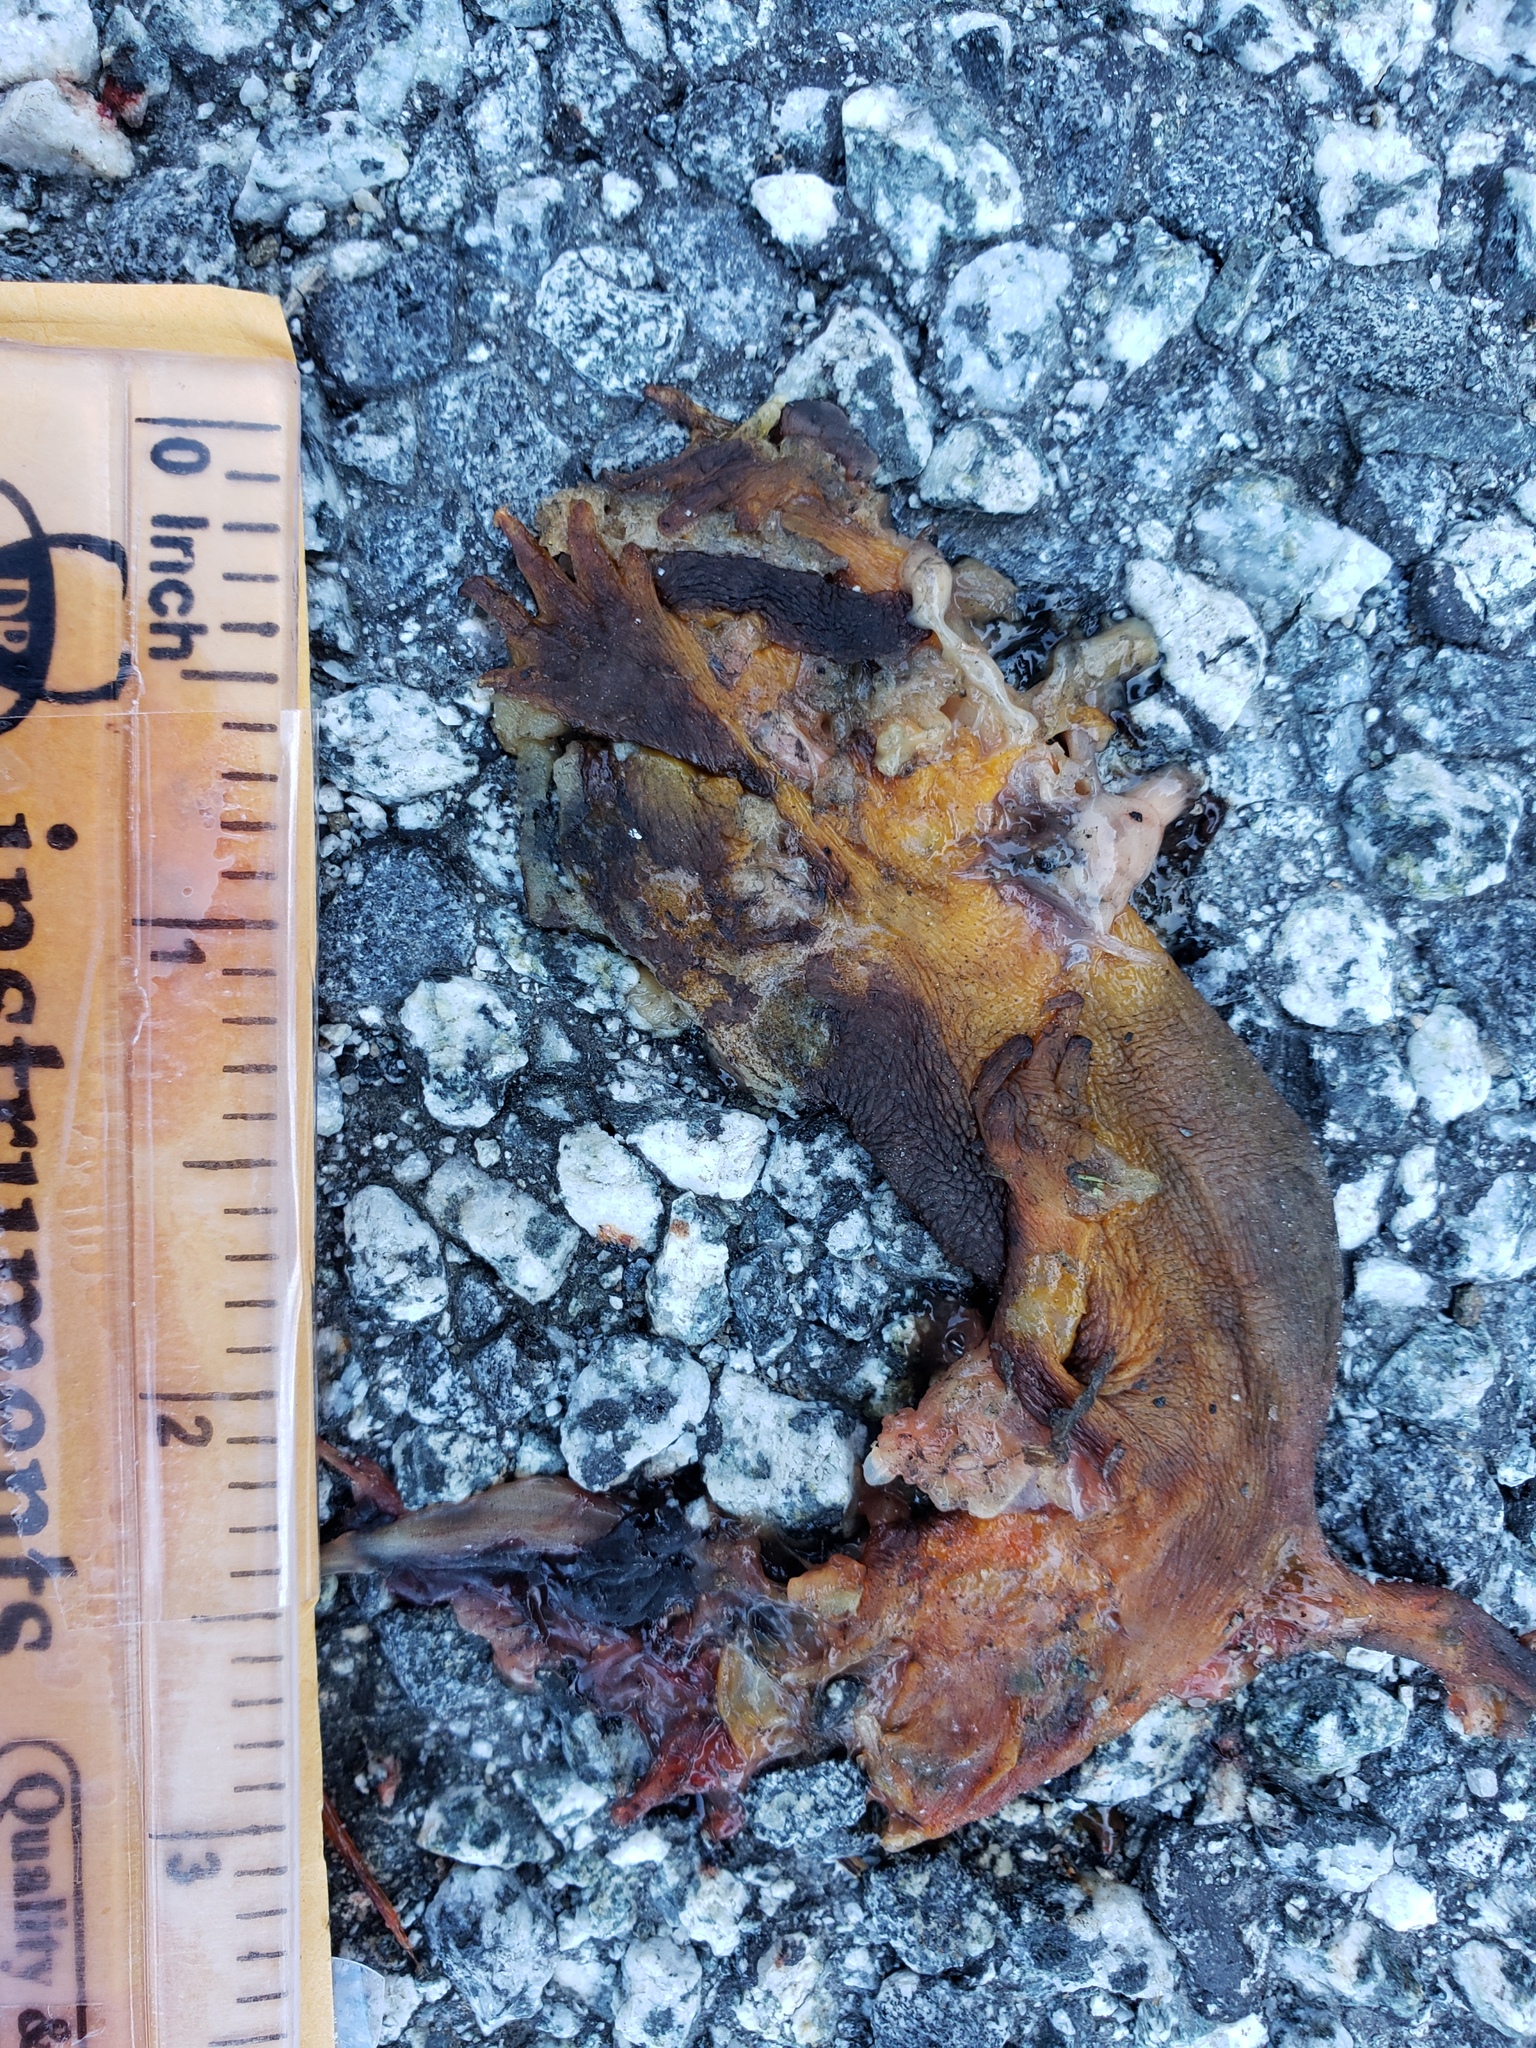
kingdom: Animalia
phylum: Chordata
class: Amphibia
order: Caudata
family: Salamandridae
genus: Taricha
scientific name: Taricha
